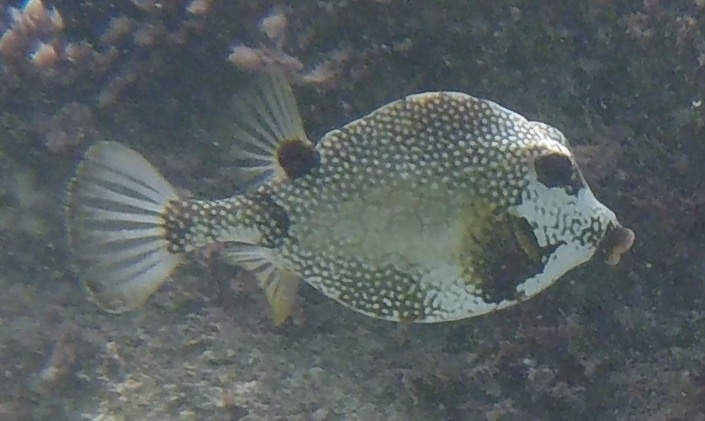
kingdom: Animalia
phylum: Chordata
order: Tetraodontiformes
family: Ostraciidae
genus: Lactophrys
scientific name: Lactophrys triqueter
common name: Smooth trunkfish
